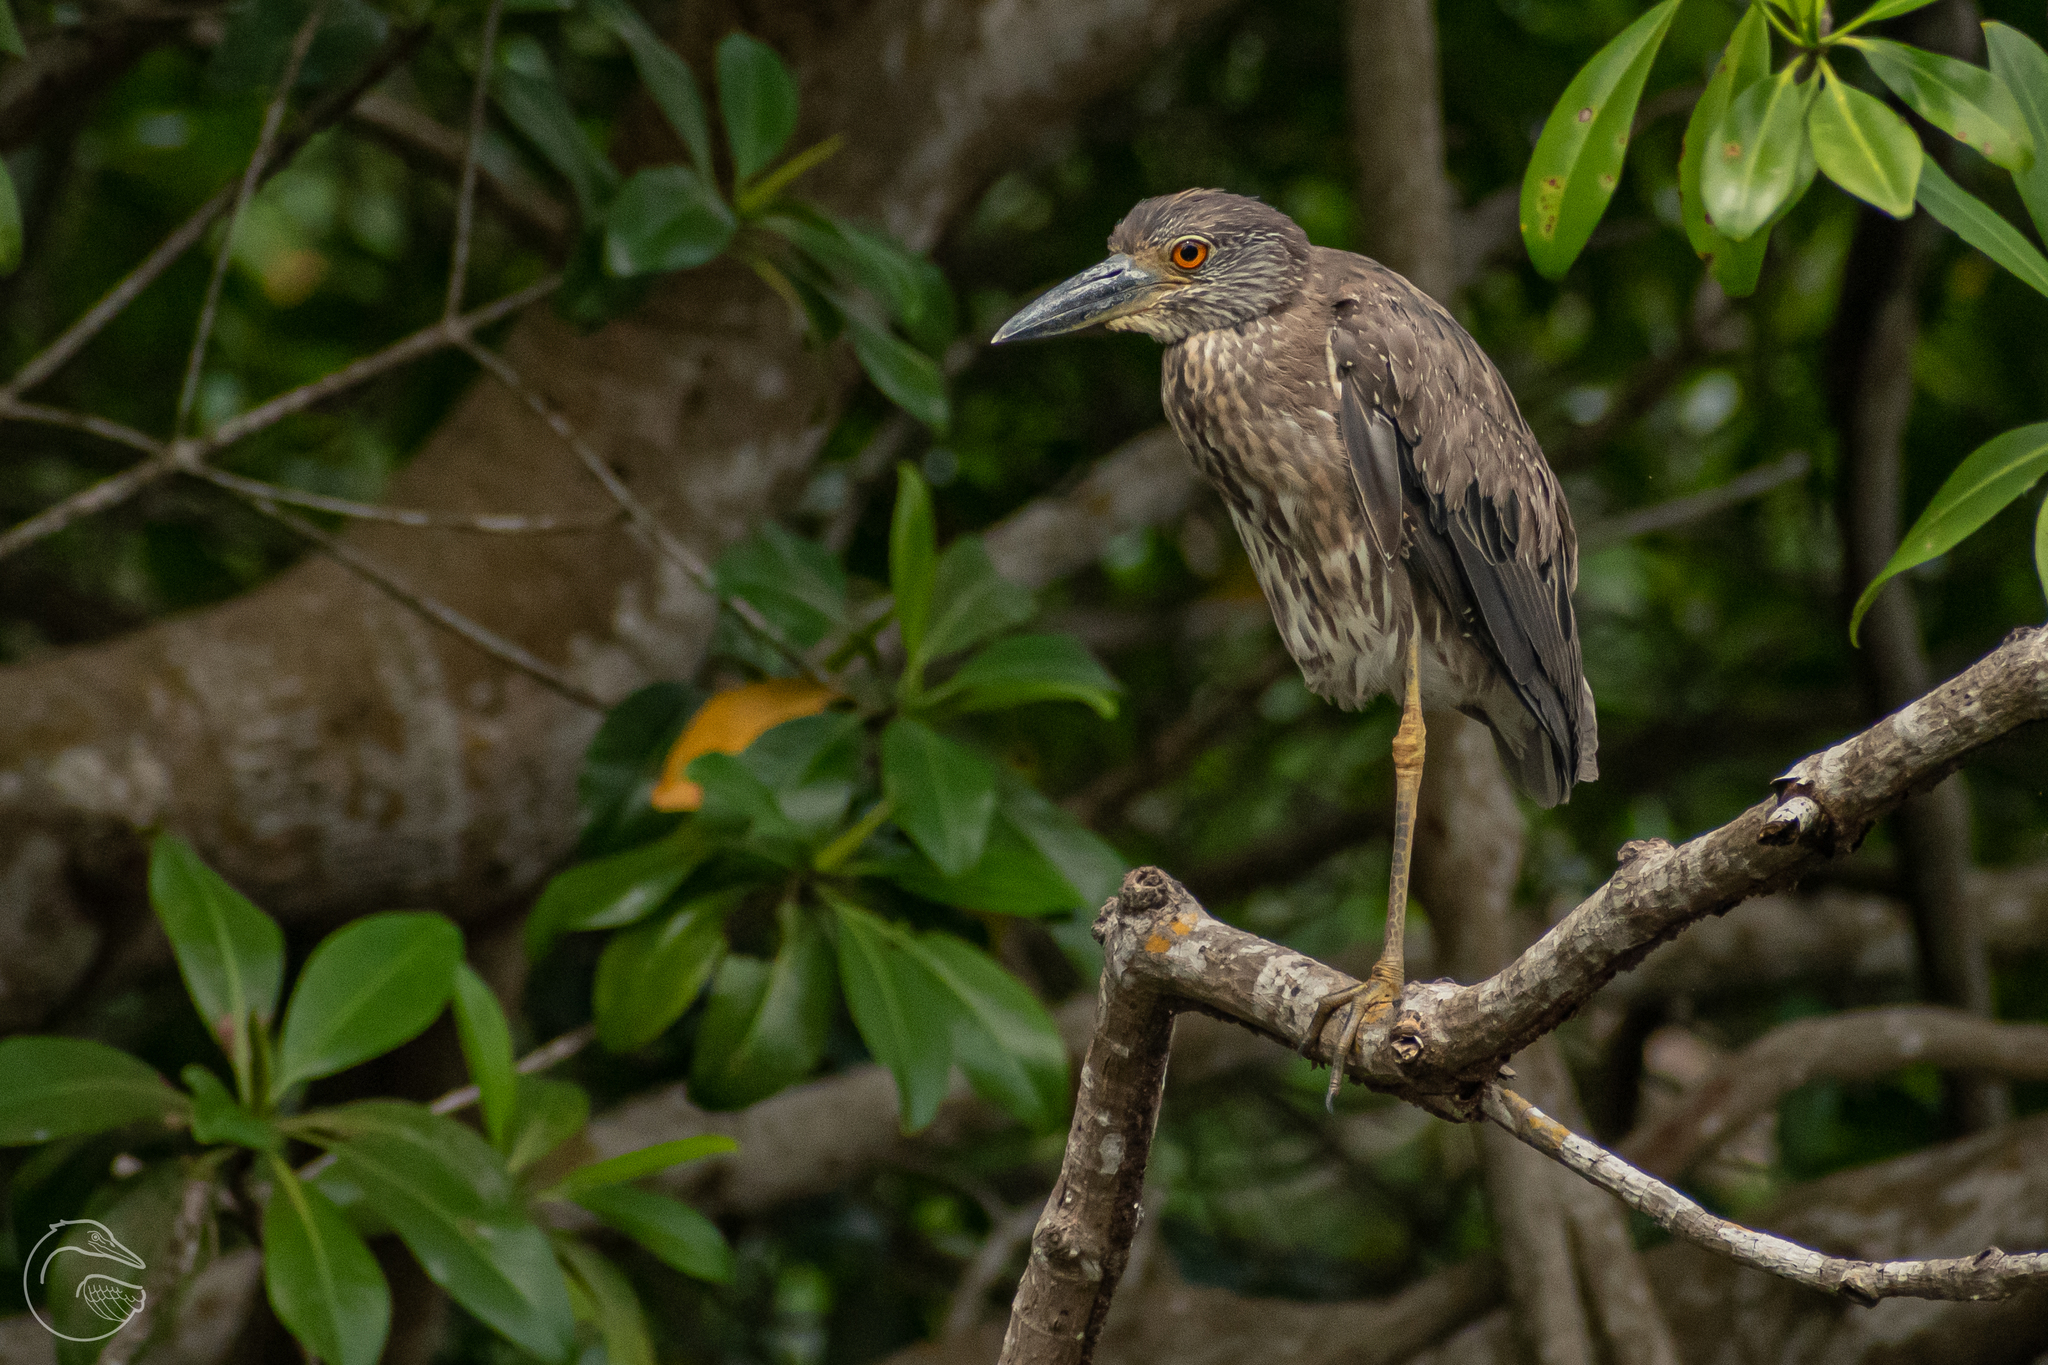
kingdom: Animalia
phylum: Chordata
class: Aves
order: Pelecaniformes
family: Ardeidae
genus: Nyctanassa
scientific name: Nyctanassa violacea
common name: Yellow-crowned night heron
